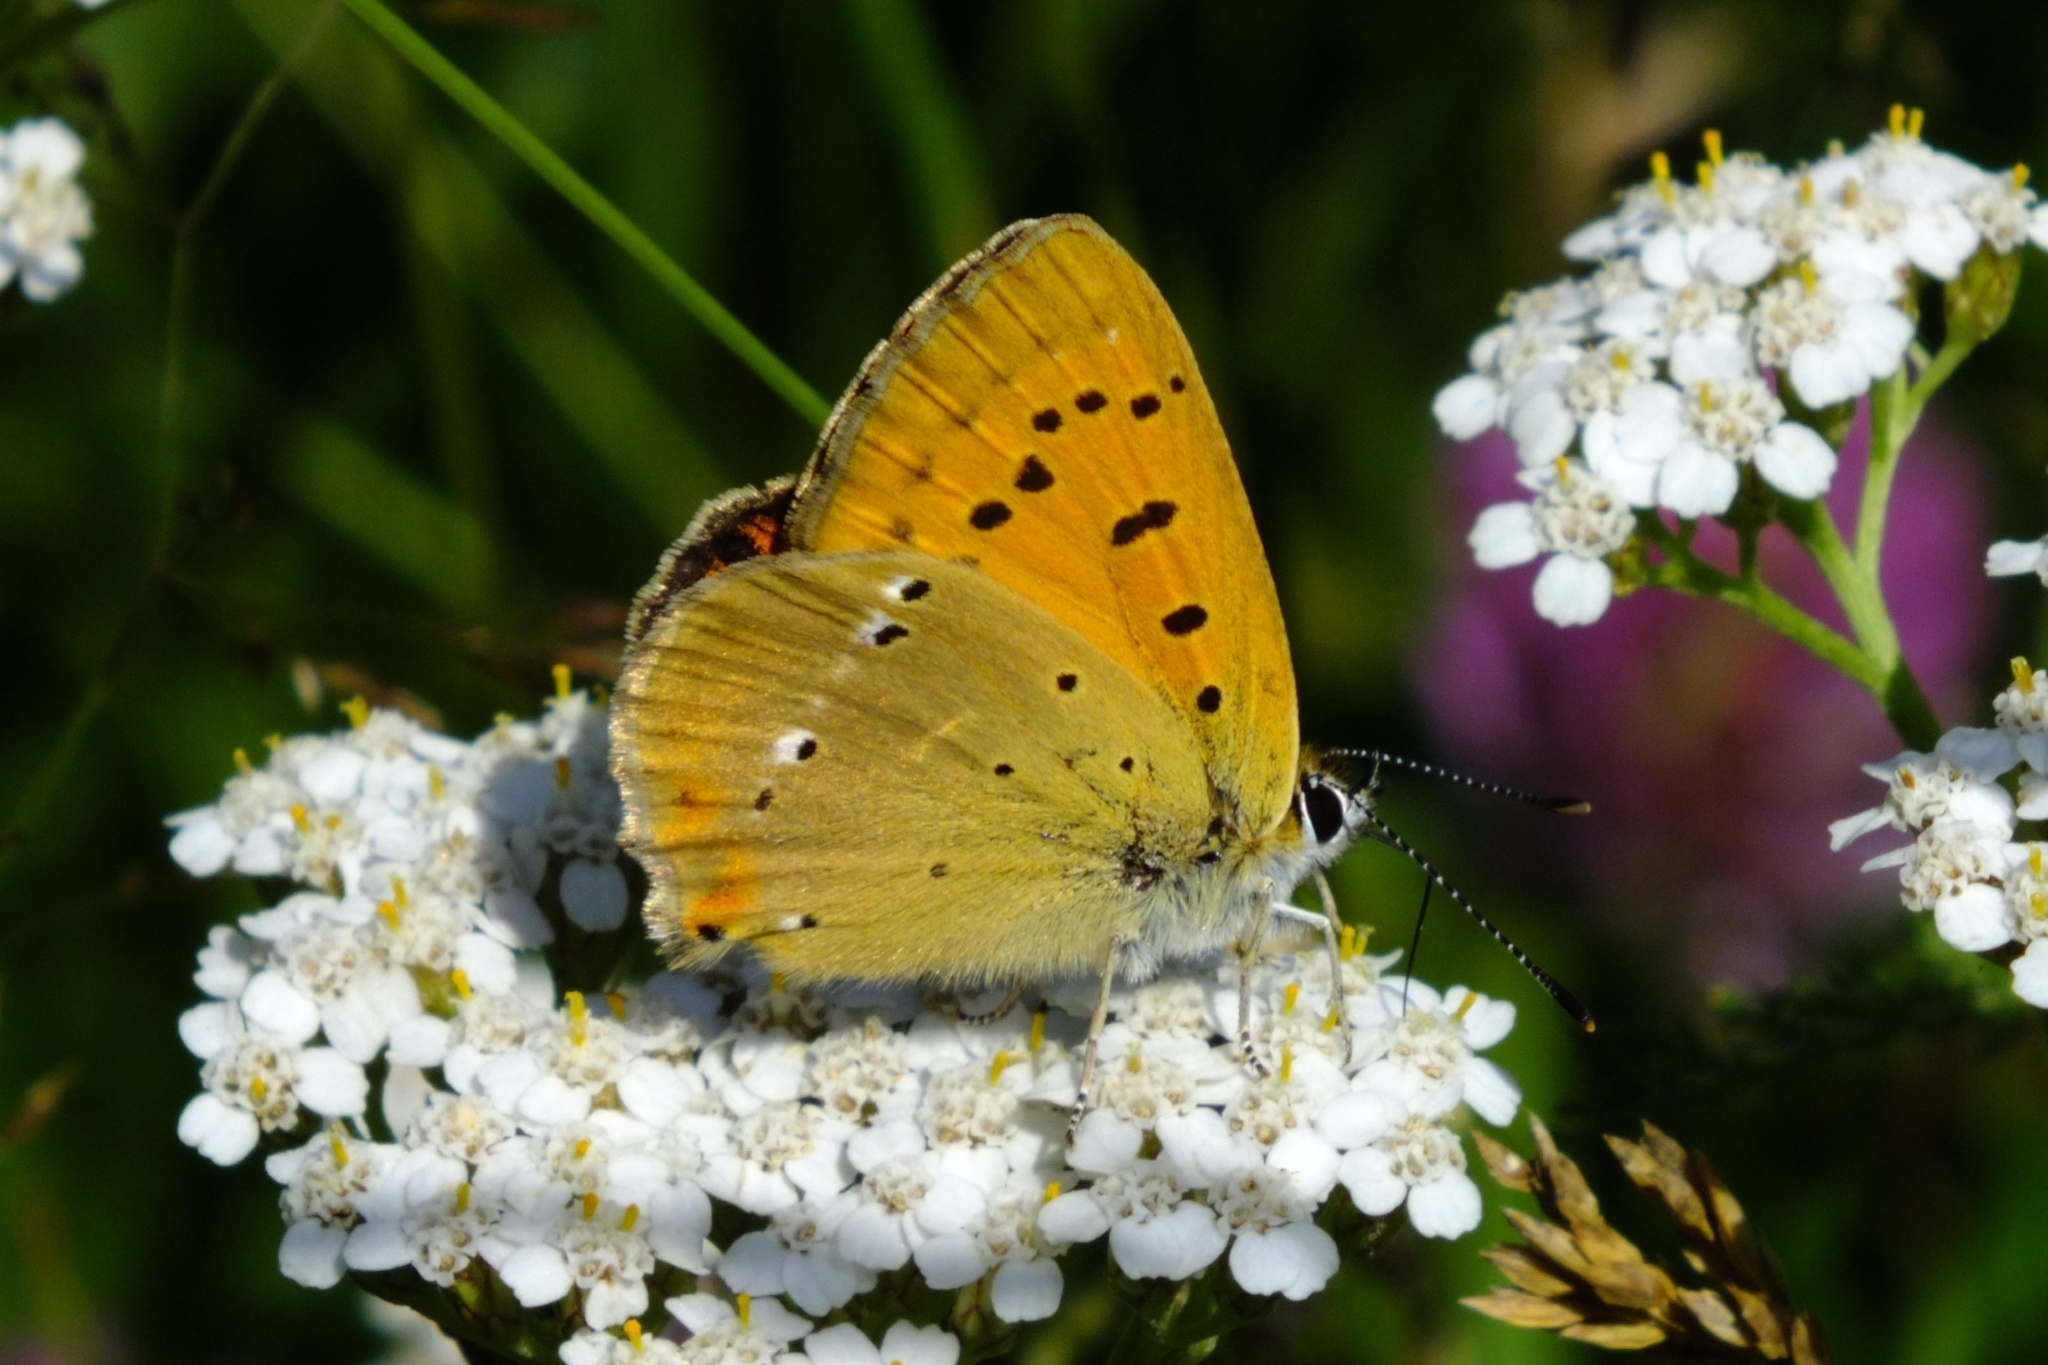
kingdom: Animalia
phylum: Arthropoda
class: Insecta
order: Lepidoptera
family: Lycaenidae
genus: Lycaena
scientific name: Lycaena virgaureae
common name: Scarce copper
